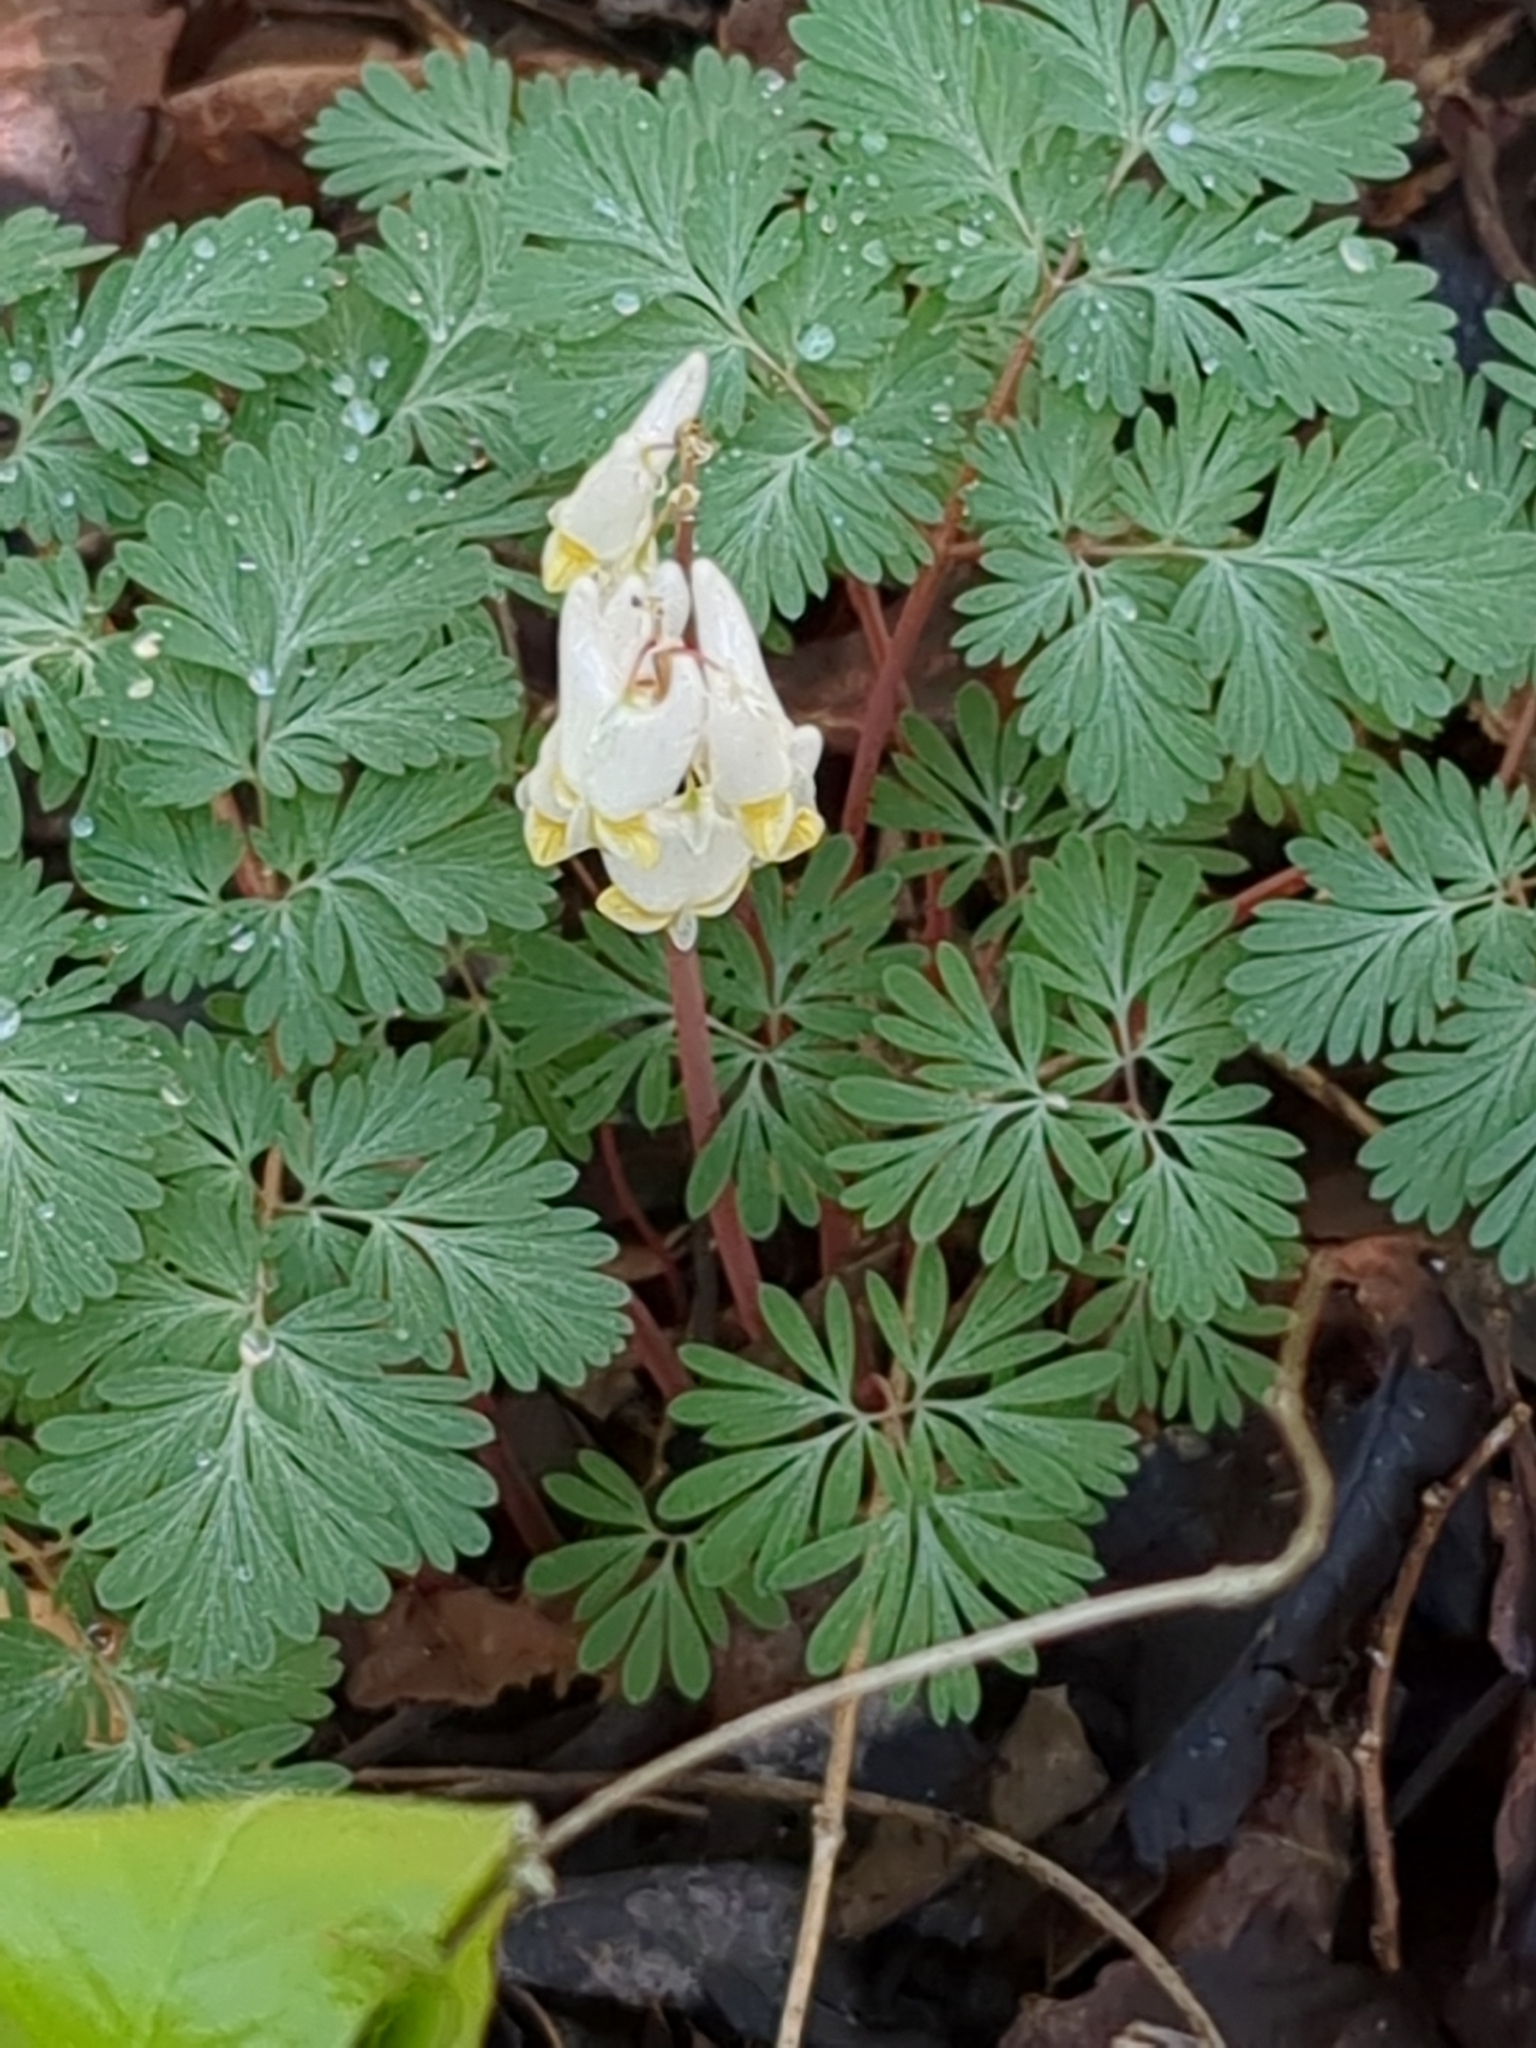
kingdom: Plantae
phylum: Tracheophyta
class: Magnoliopsida
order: Ranunculales
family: Papaveraceae
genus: Dicentra
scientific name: Dicentra cucullaria
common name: Dutchman's breeches
